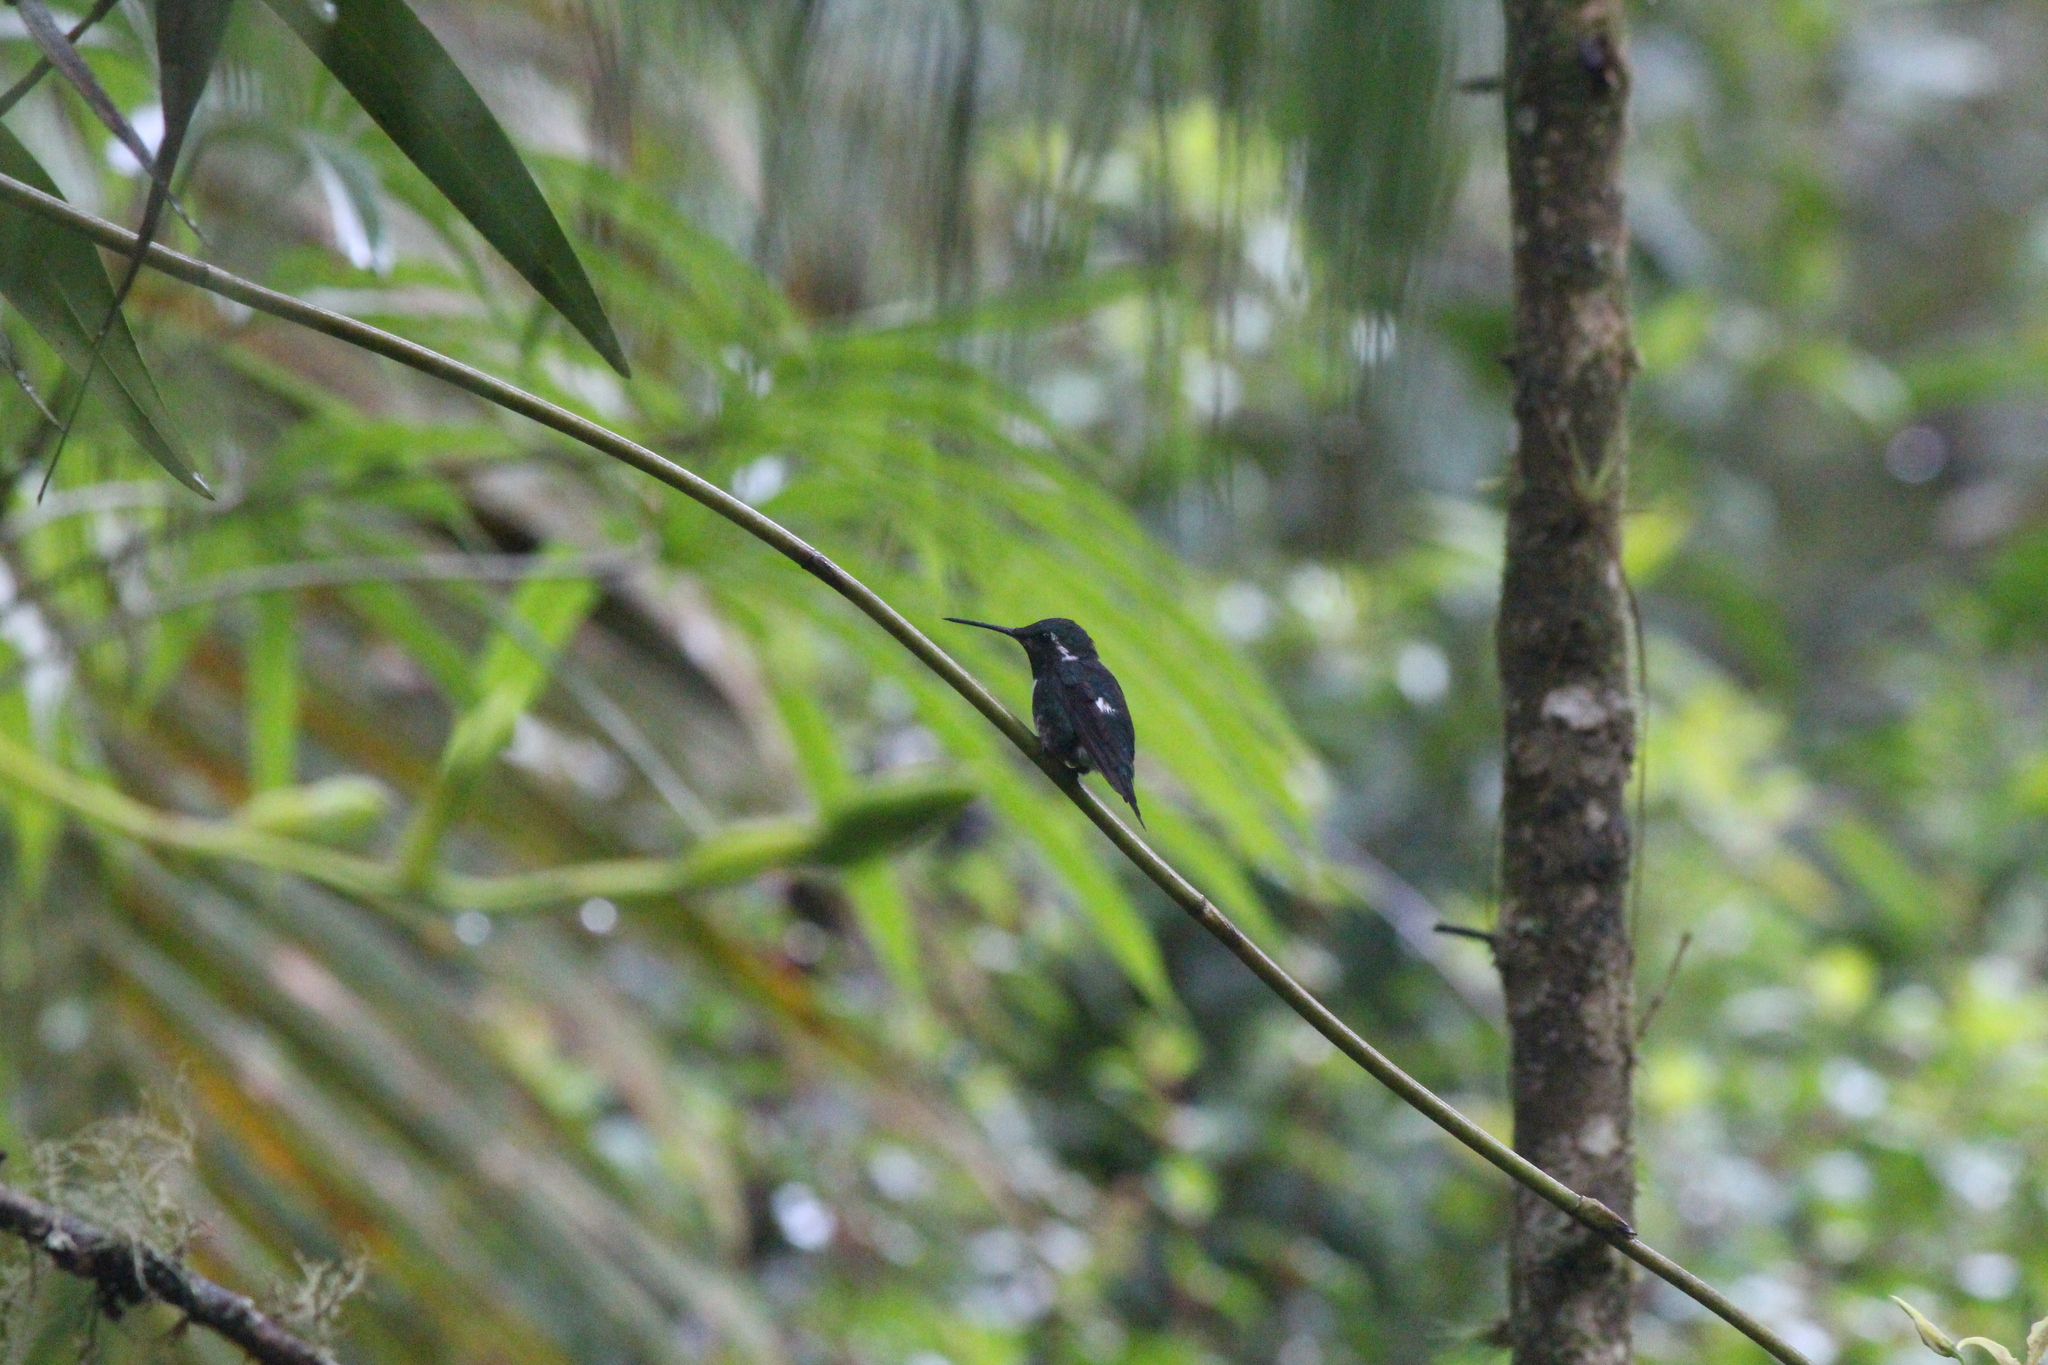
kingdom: Animalia
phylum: Chordata
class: Aves
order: Apodiformes
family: Trochilidae
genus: Chaetocercus
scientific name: Chaetocercus mulsant
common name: White-bellied woodstar
